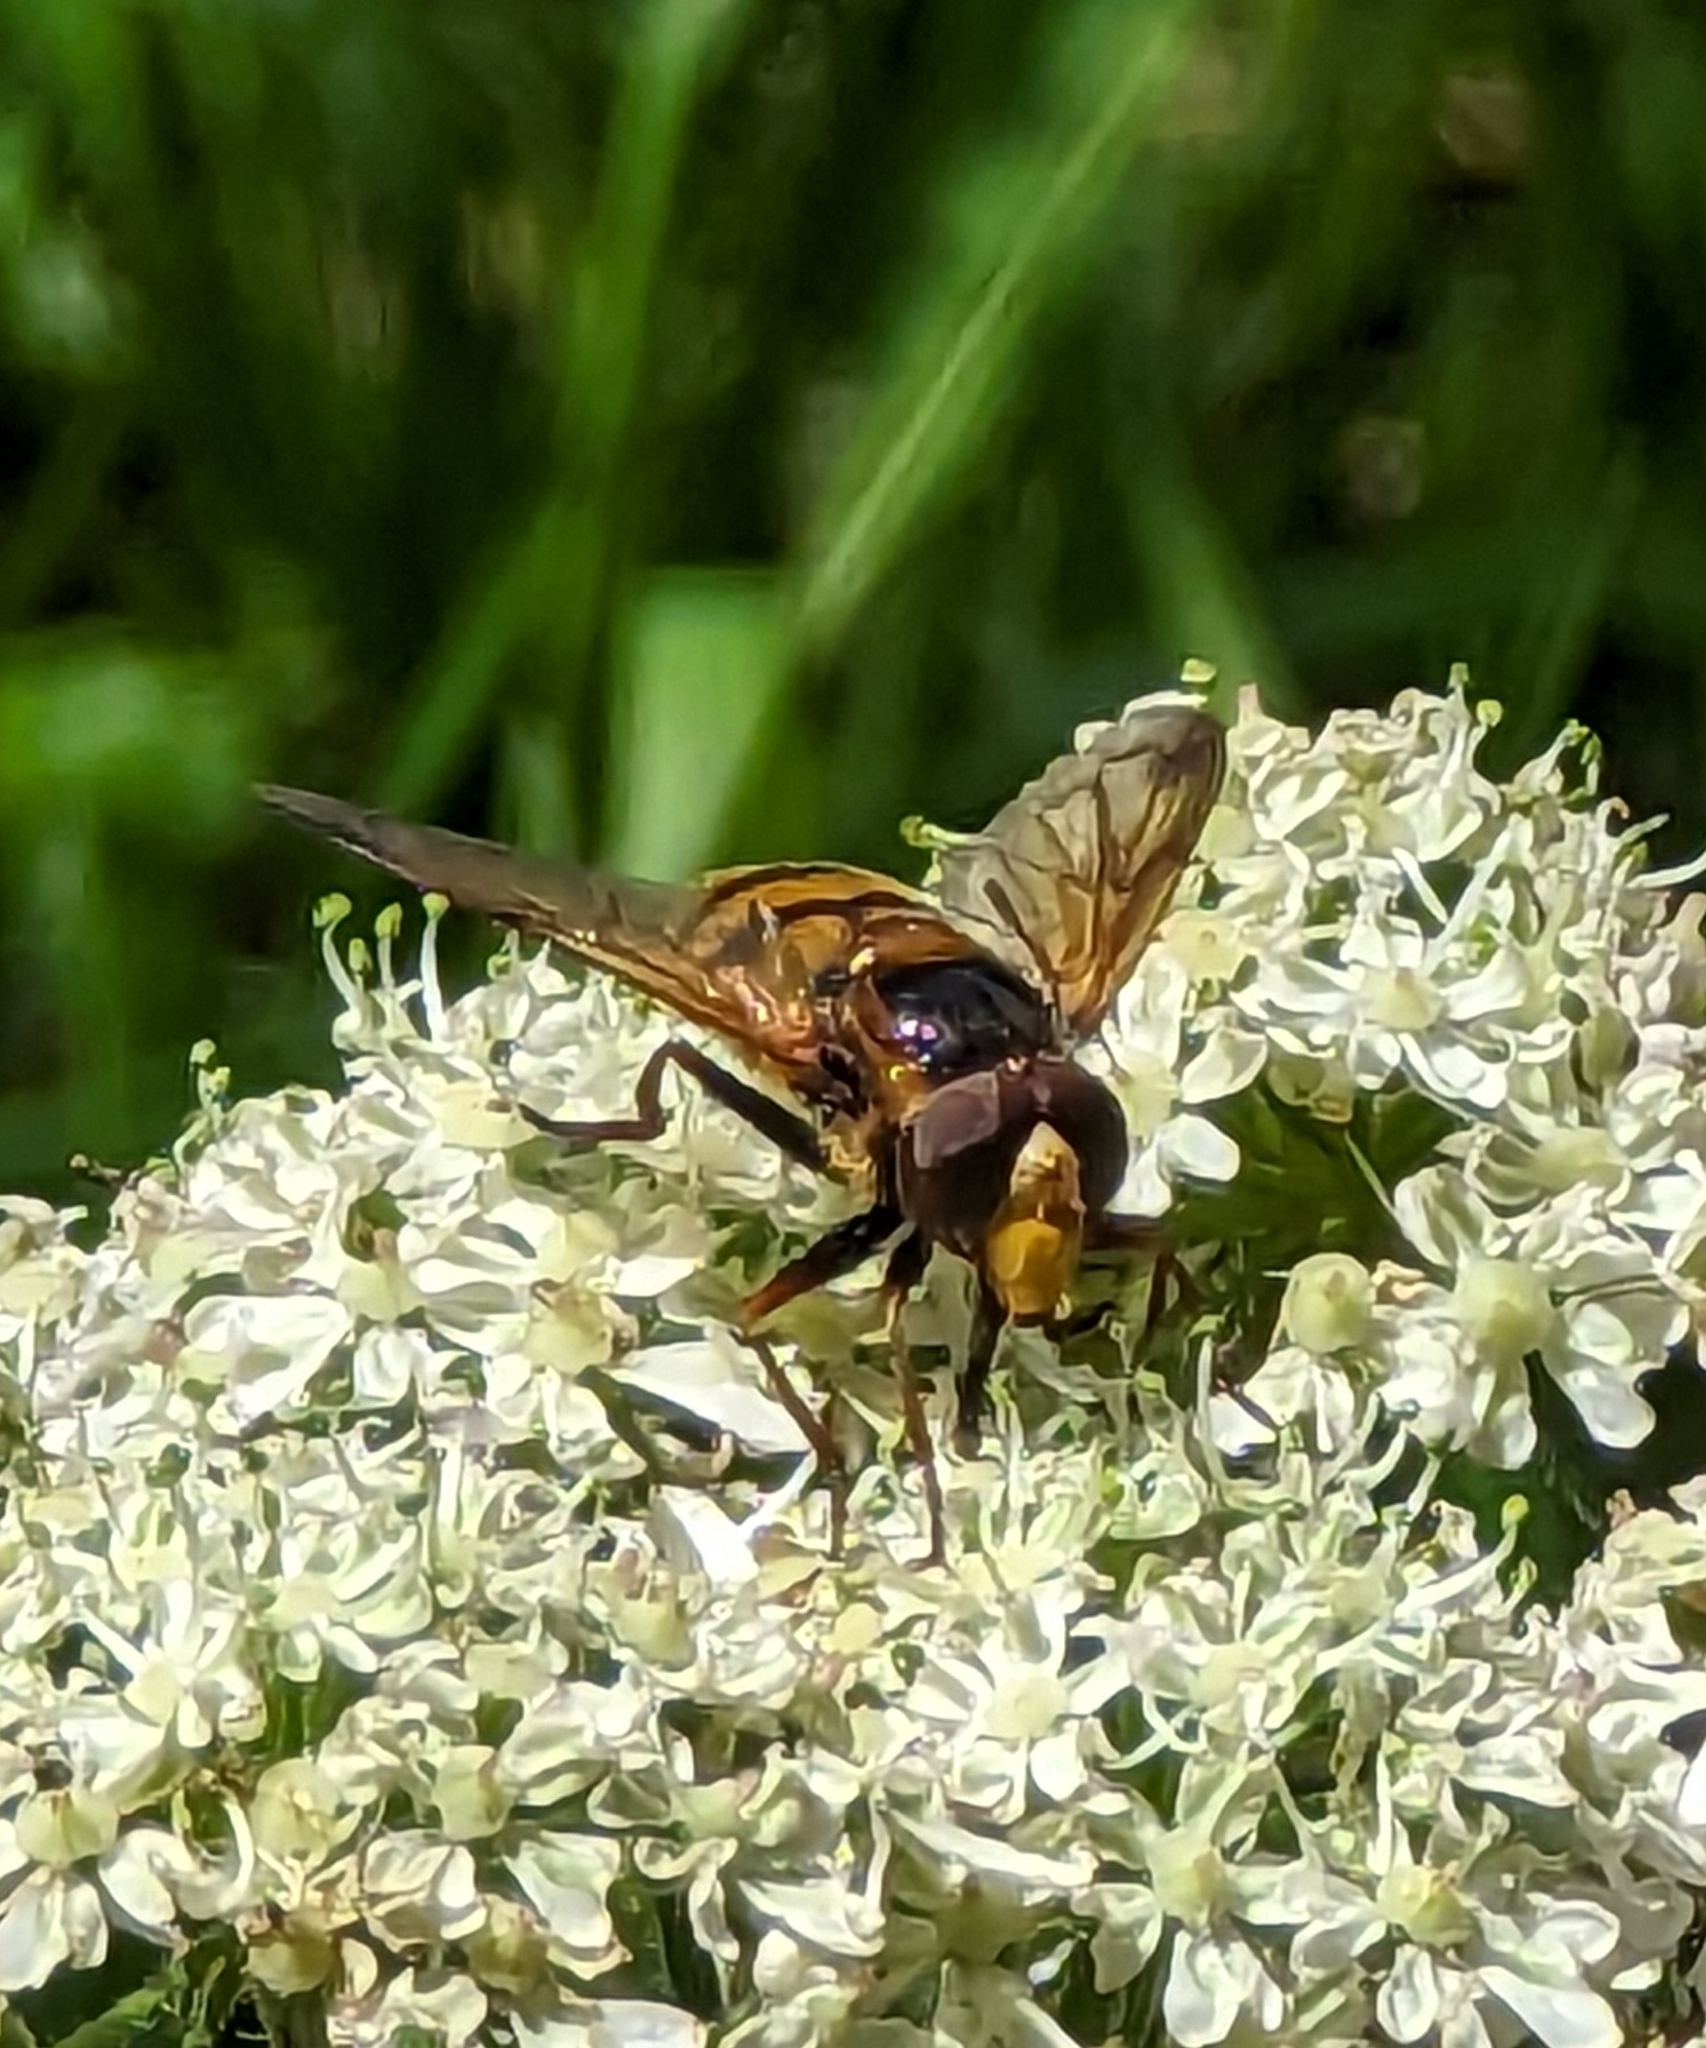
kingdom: Animalia
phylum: Arthropoda
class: Insecta
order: Diptera
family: Syrphidae
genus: Volucella
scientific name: Volucella inanis
